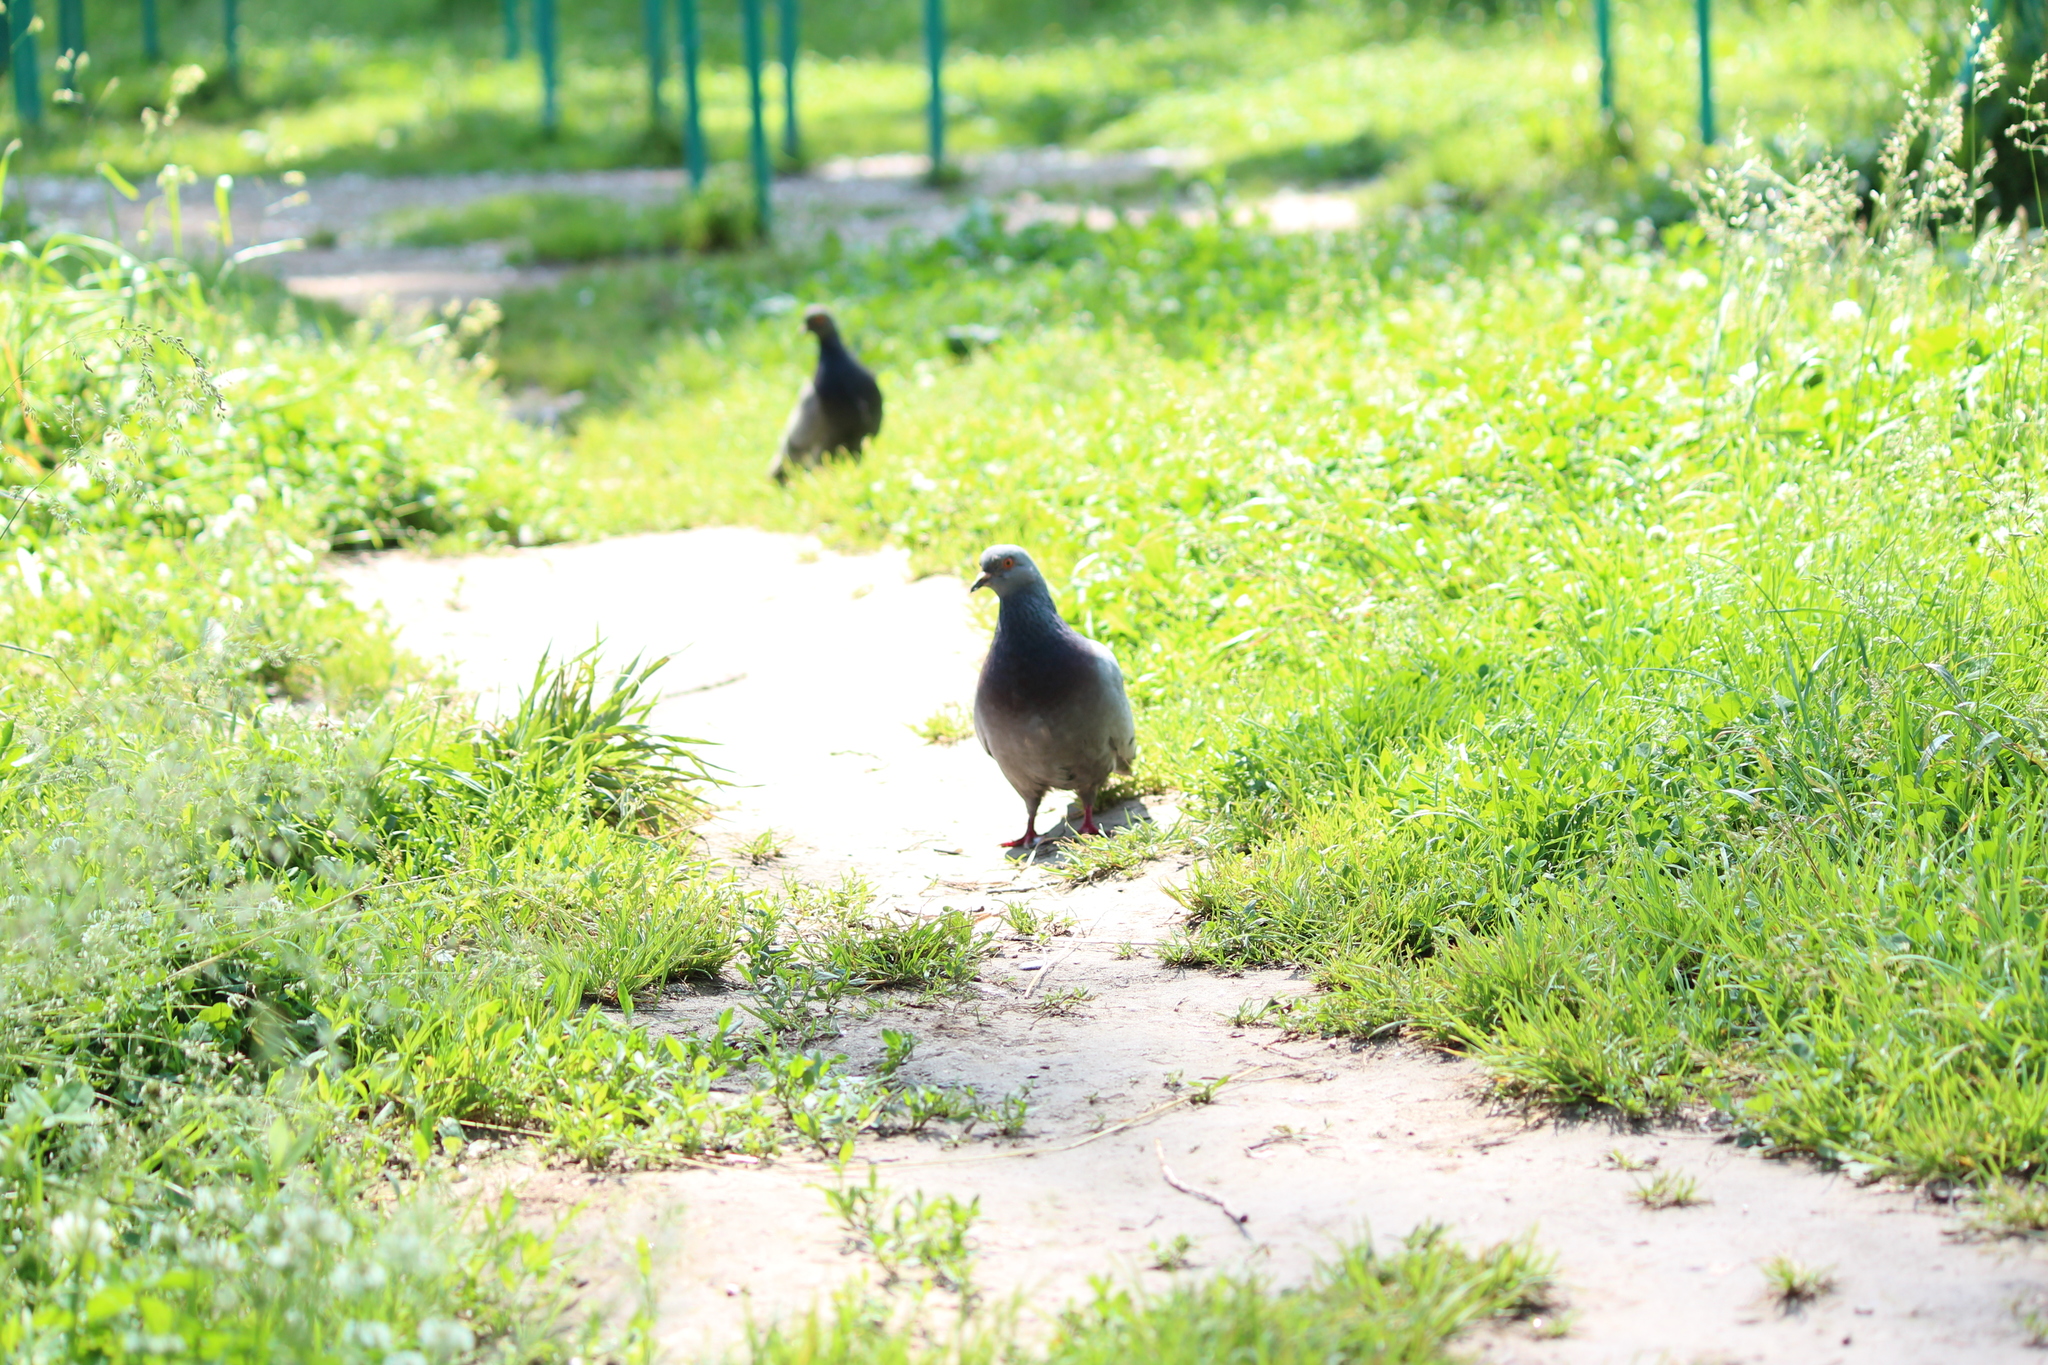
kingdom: Animalia
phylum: Chordata
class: Aves
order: Columbiformes
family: Columbidae
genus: Columba
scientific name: Columba livia
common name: Rock pigeon
